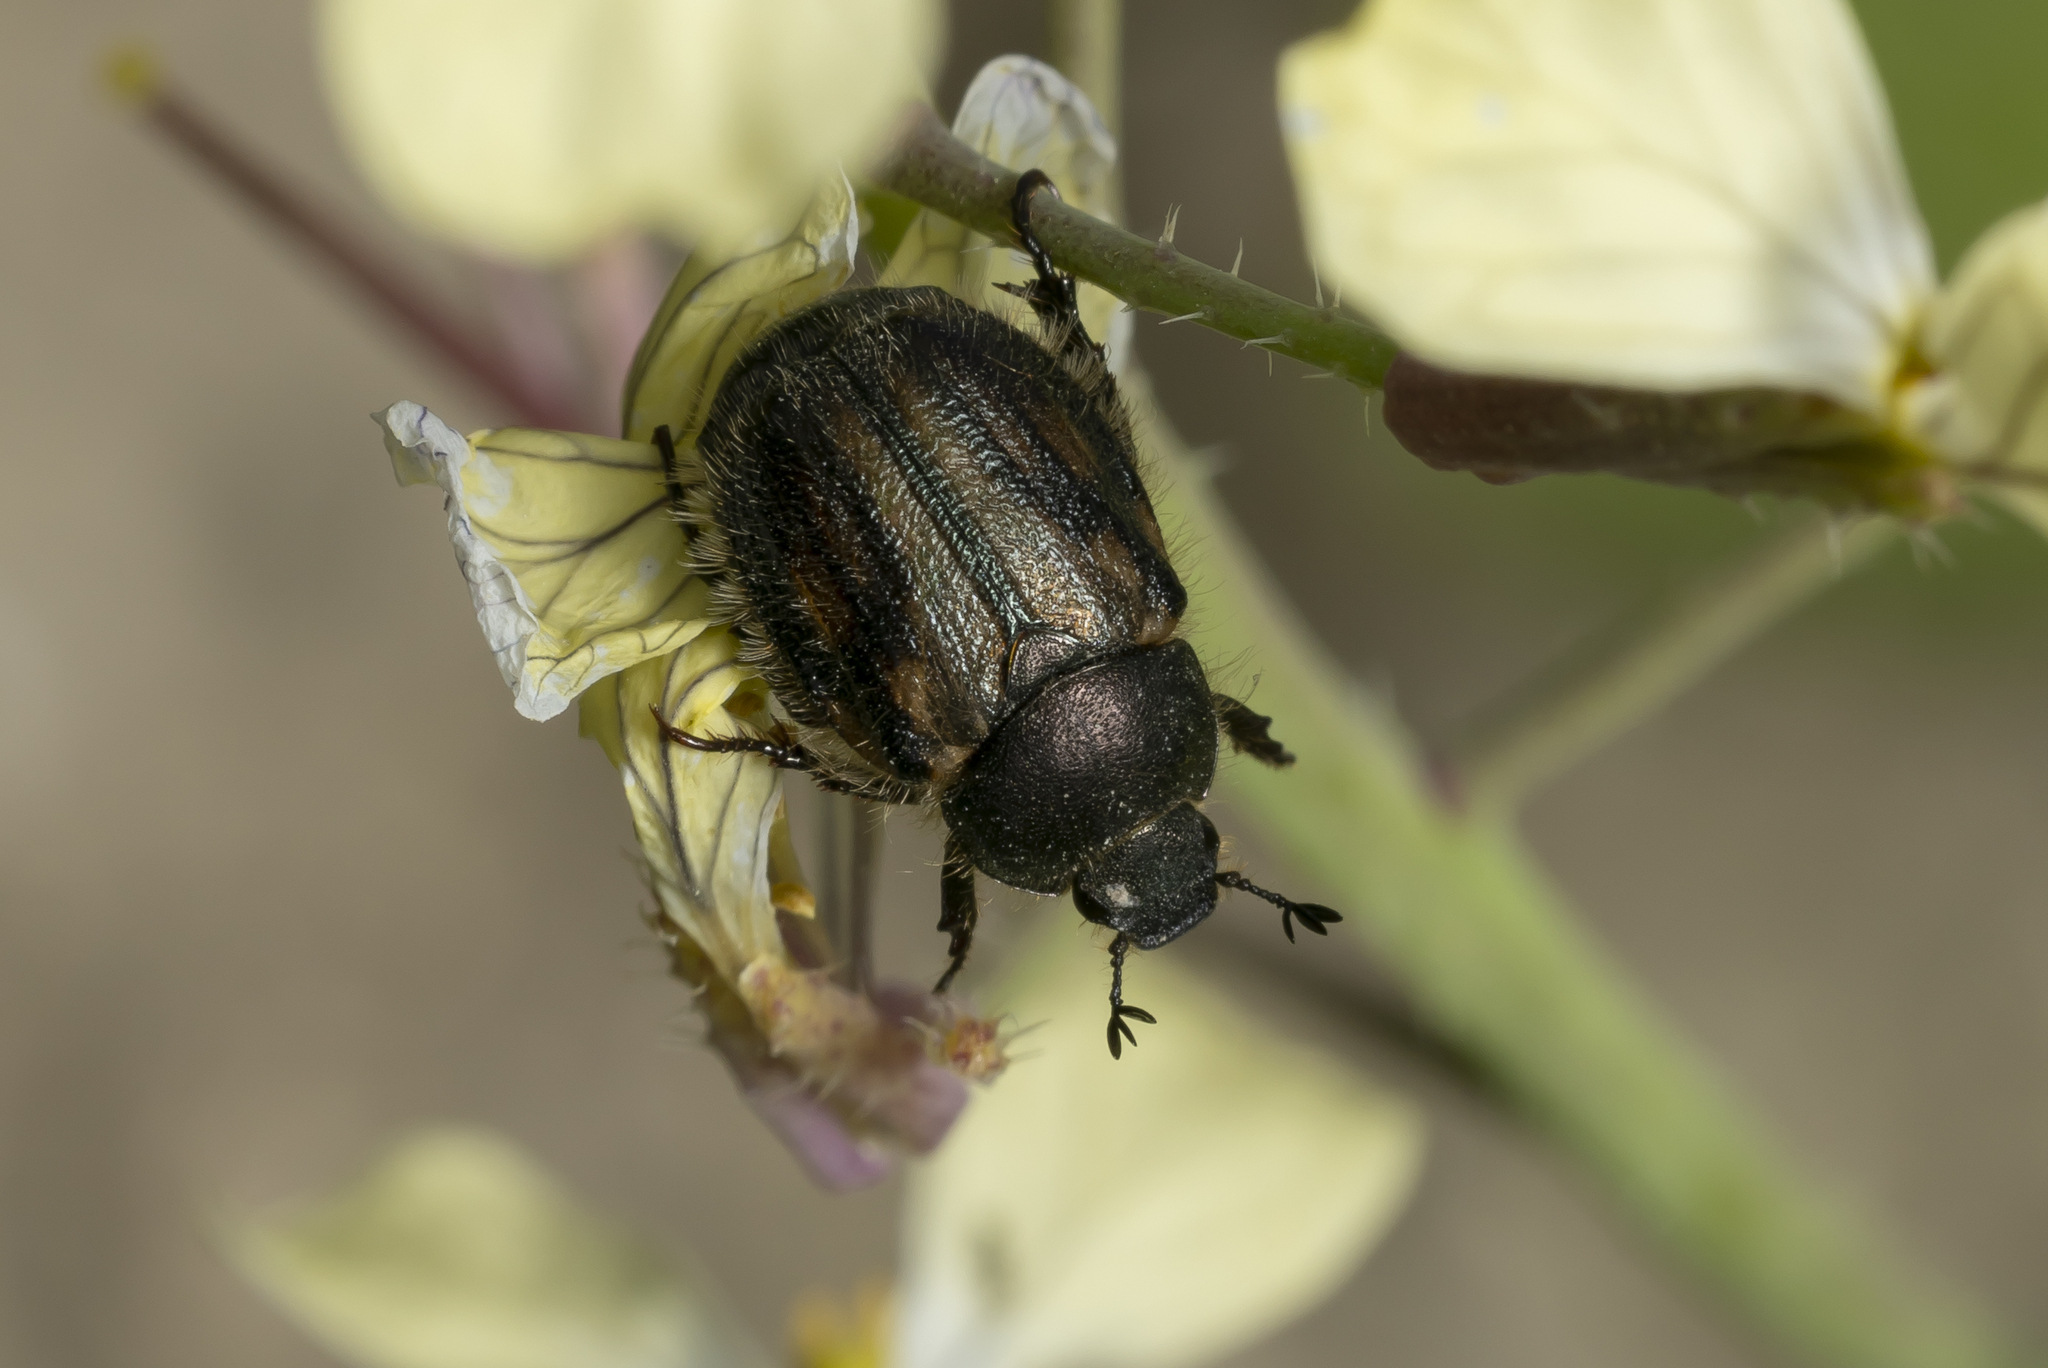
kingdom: Animalia
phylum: Arthropoda
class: Insecta
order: Coleoptera
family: Scarabaeidae
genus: Blitopertha
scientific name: Blitopertha lineolata
